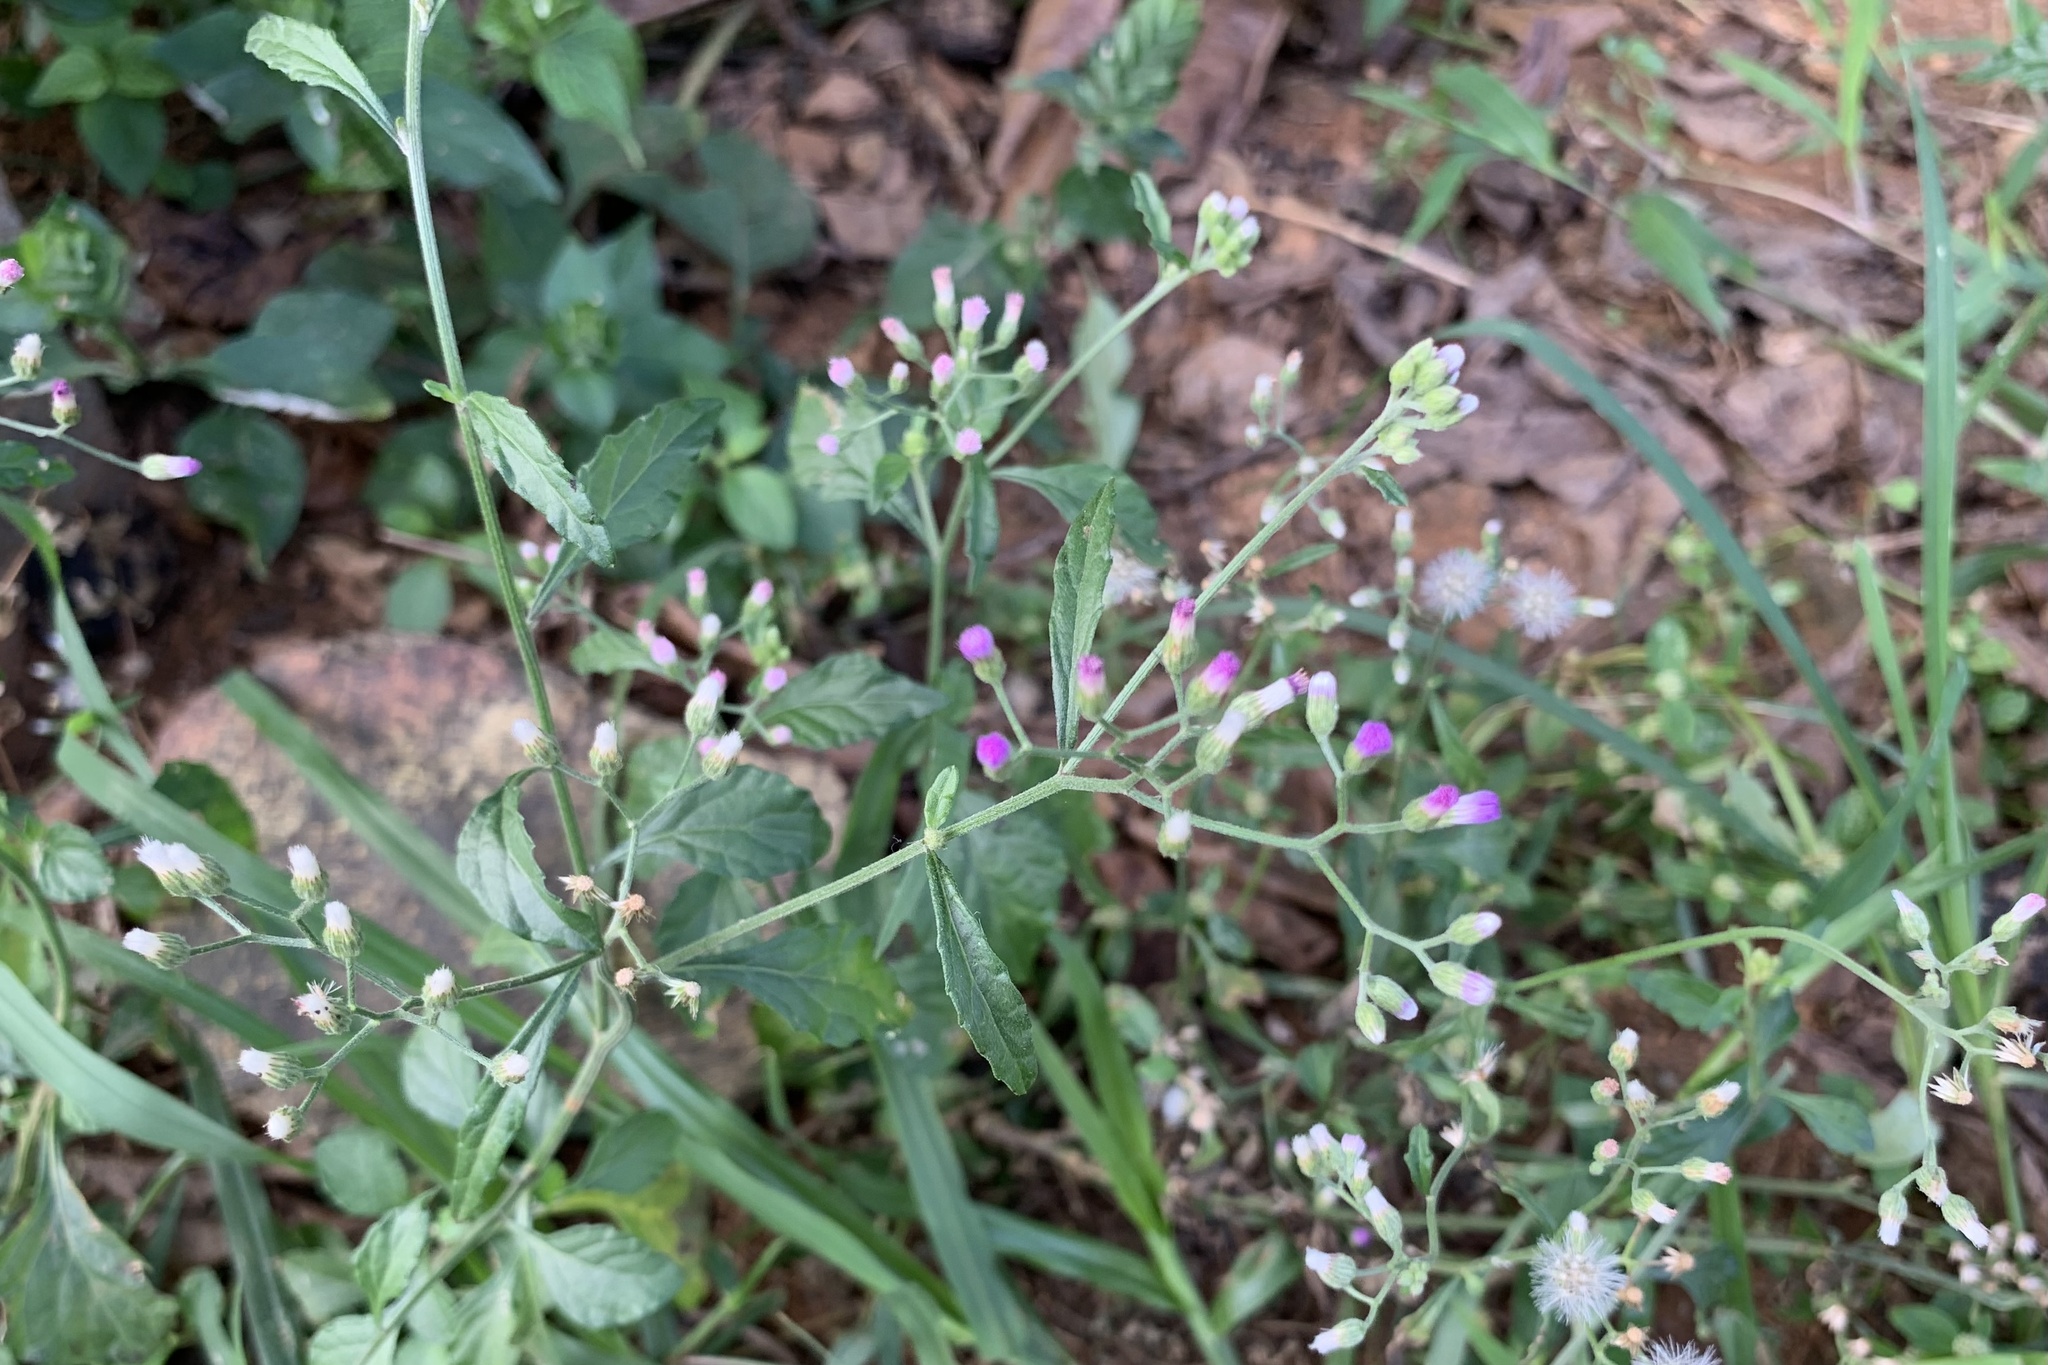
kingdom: Plantae
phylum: Tracheophyta
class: Magnoliopsida
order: Asterales
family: Asteraceae
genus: Cyanthillium
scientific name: Cyanthillium cinereum
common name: Little ironweed
